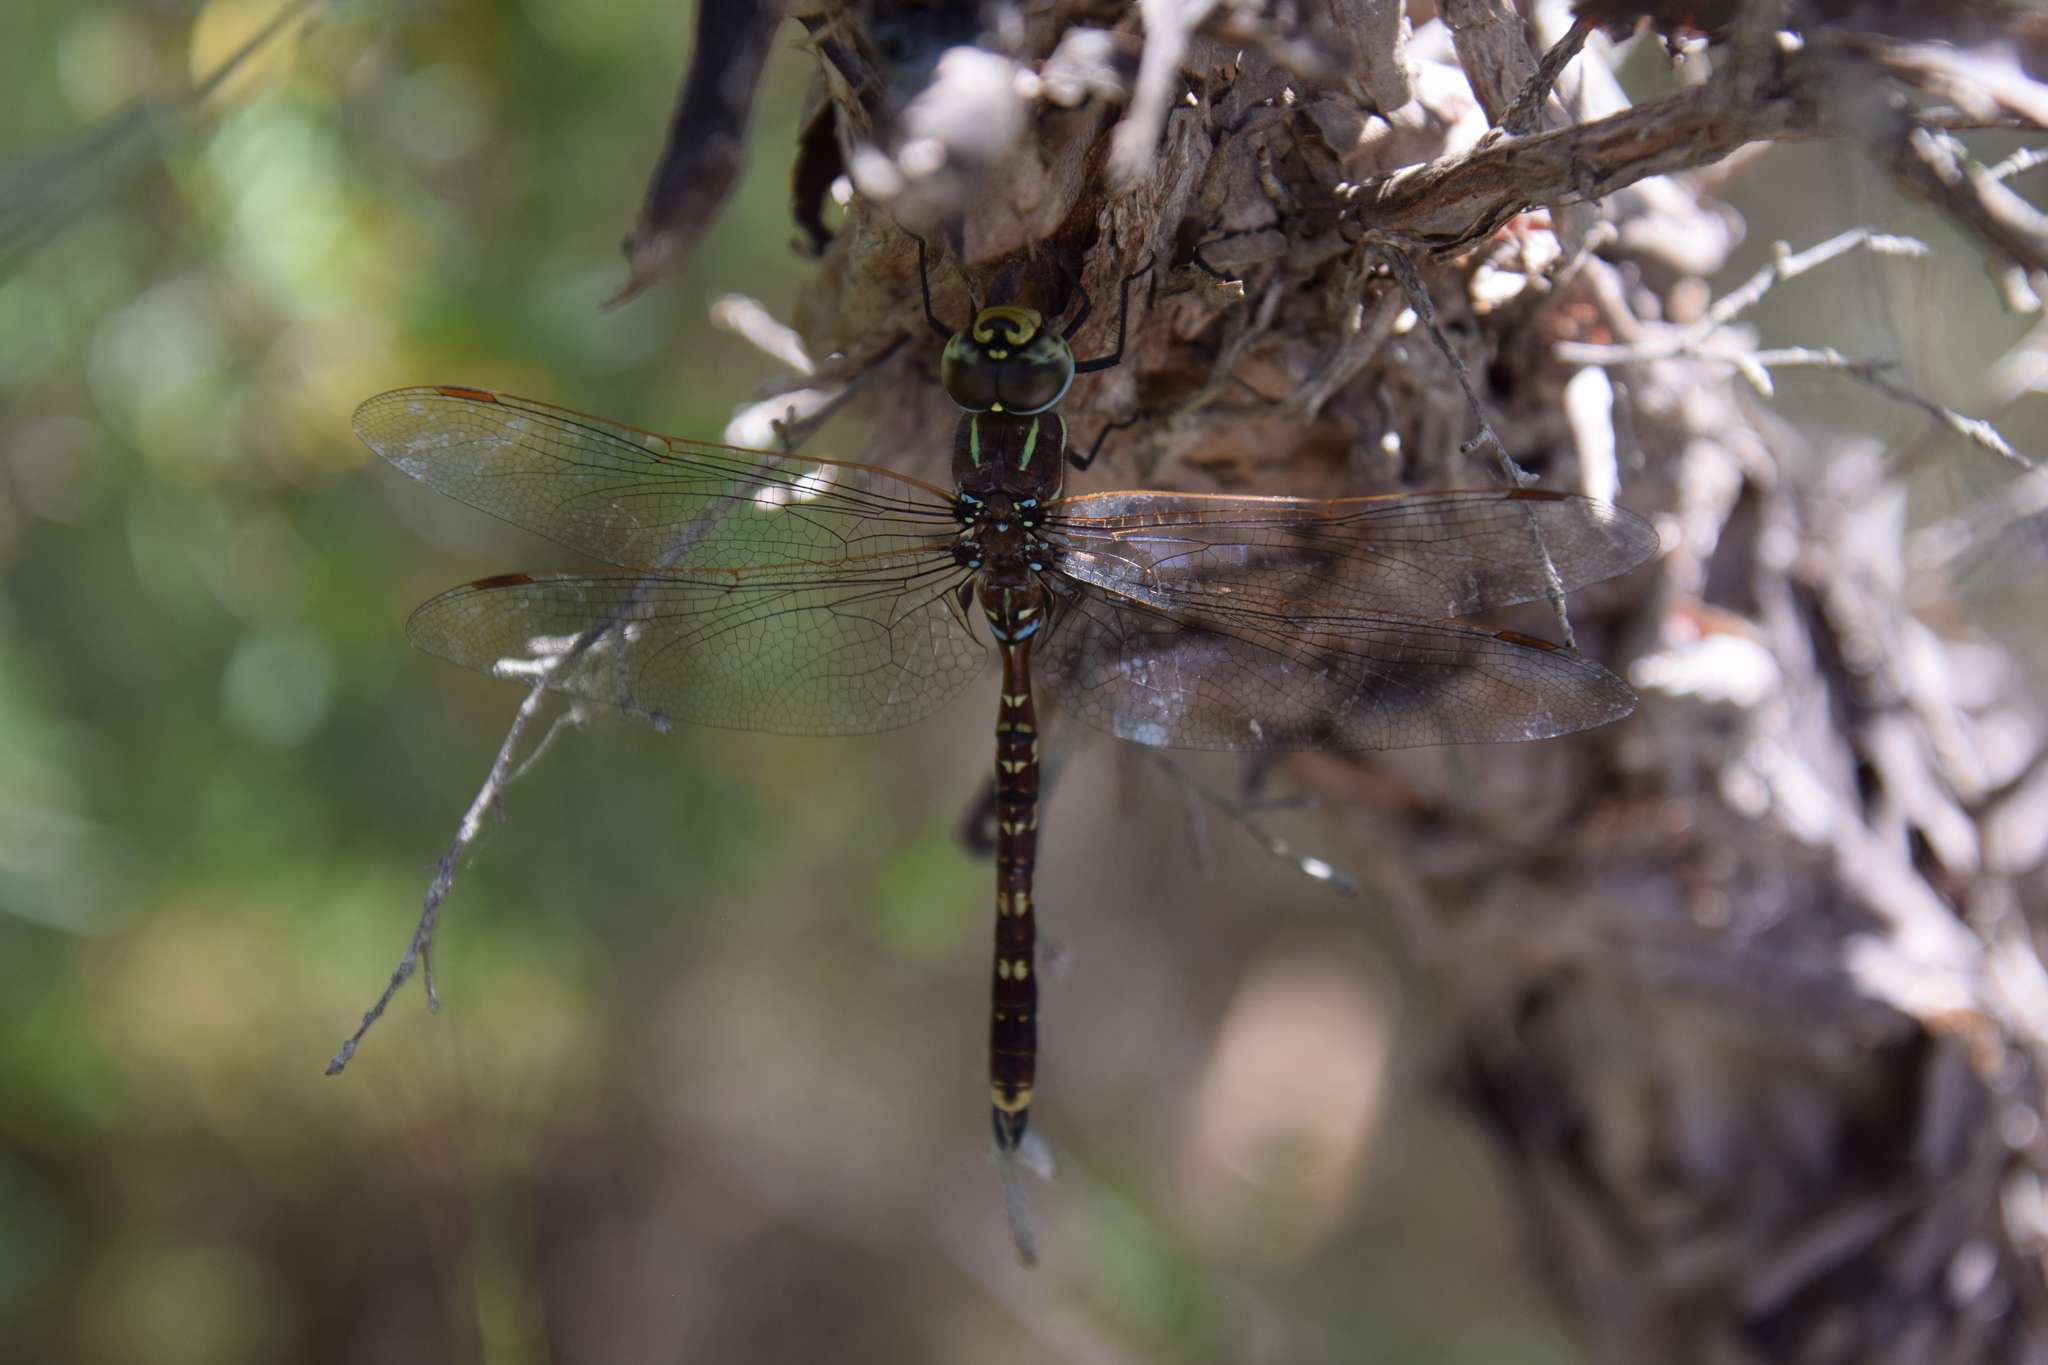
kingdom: Animalia
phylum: Arthropoda
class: Insecta
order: Odonata
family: Aeshnidae
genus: Aeshna
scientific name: Aeshna brevistyla
